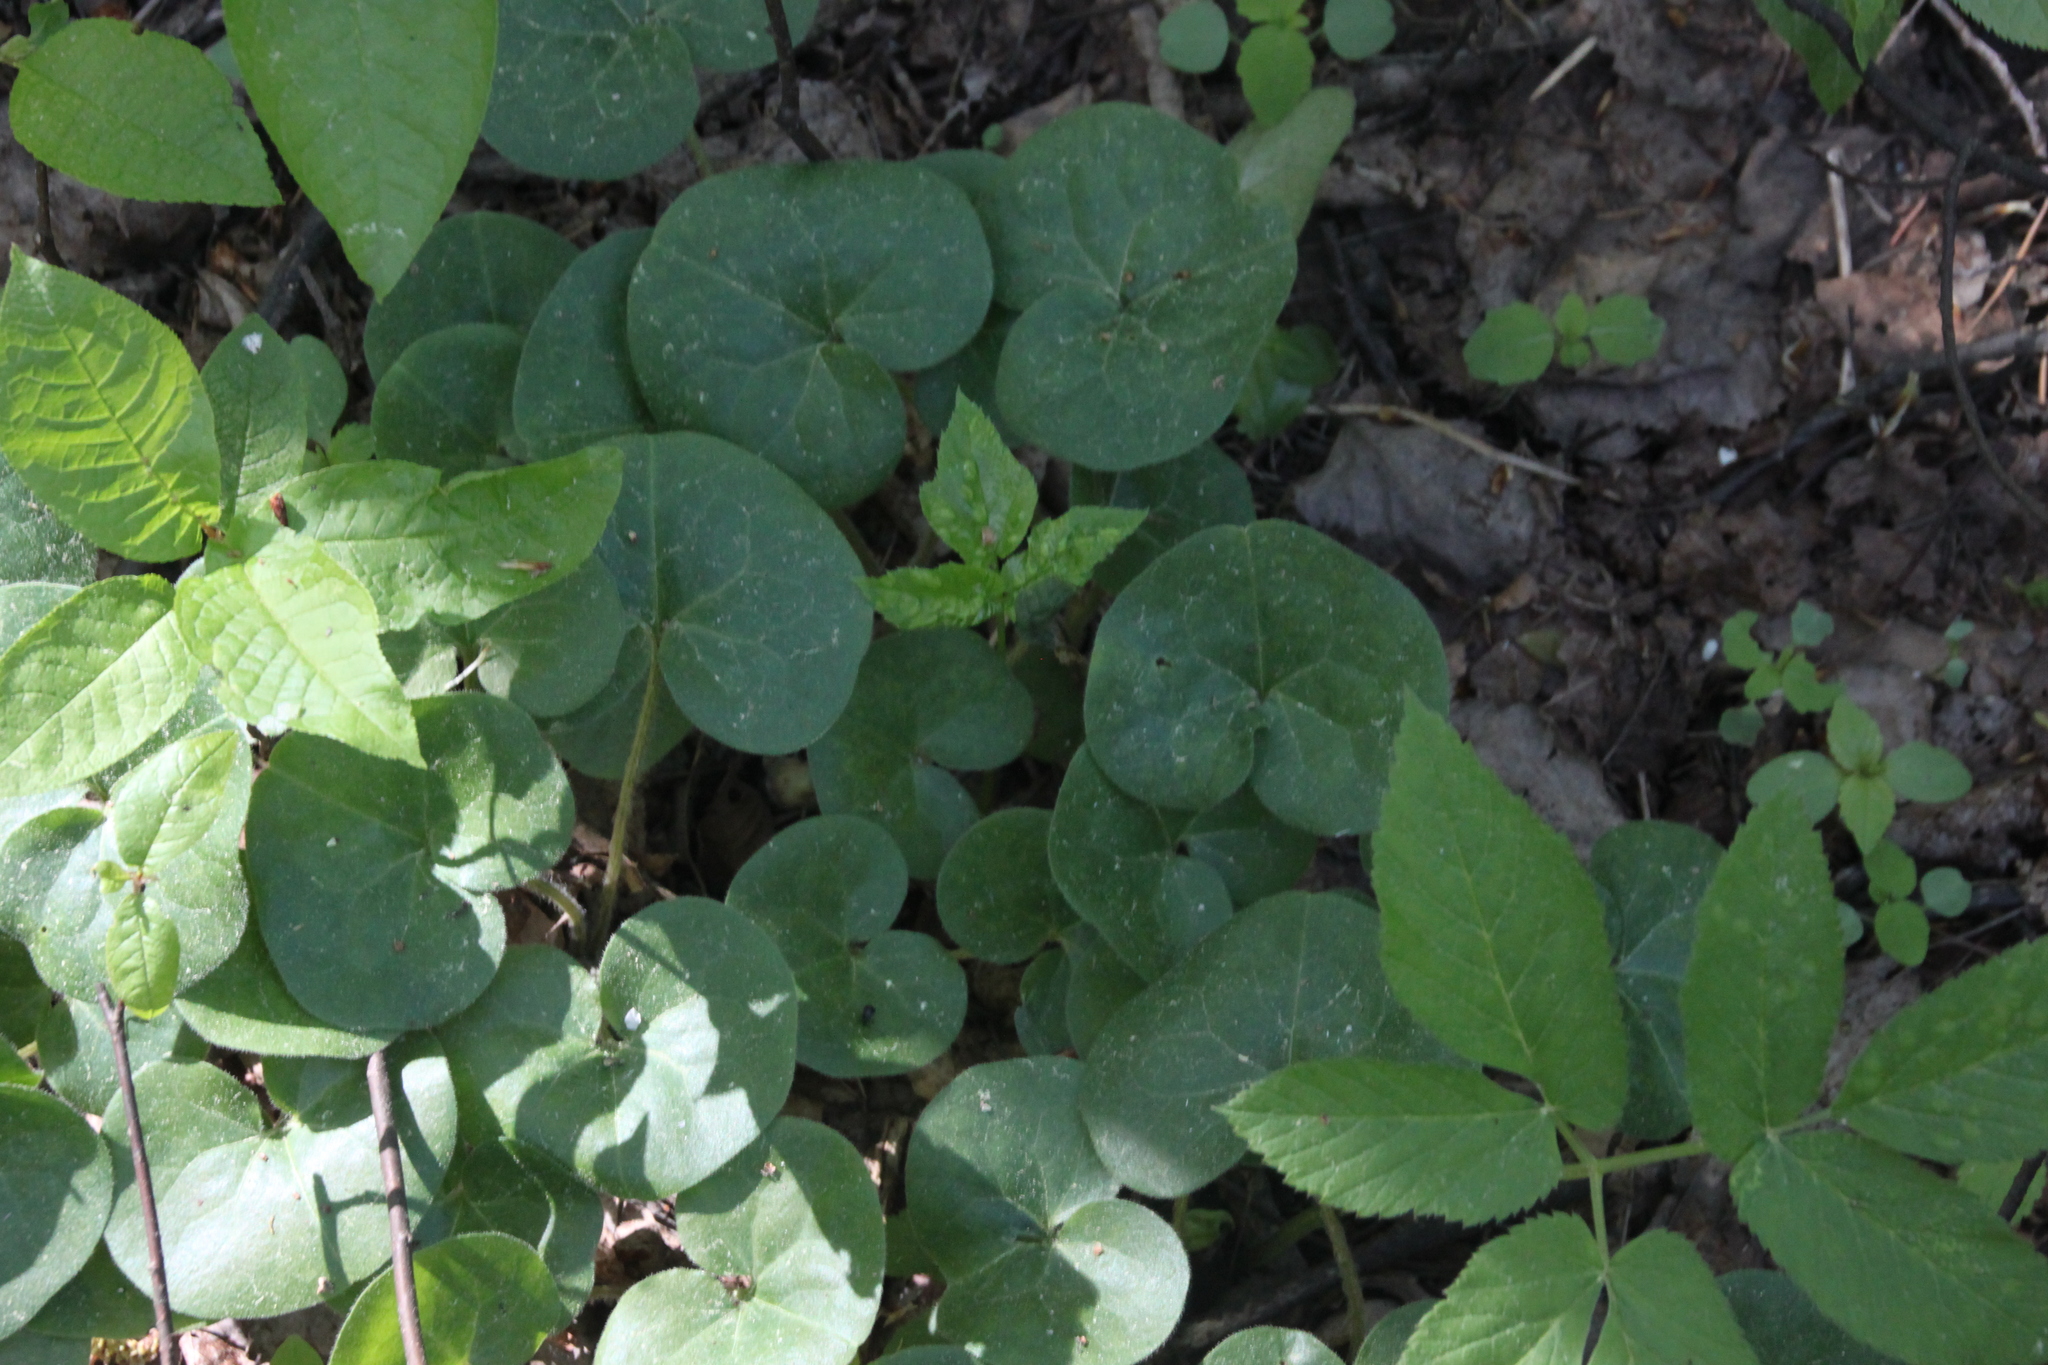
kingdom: Plantae
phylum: Tracheophyta
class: Magnoliopsida
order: Piperales
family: Aristolochiaceae
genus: Asarum
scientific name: Asarum europaeum
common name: Asarabacca
